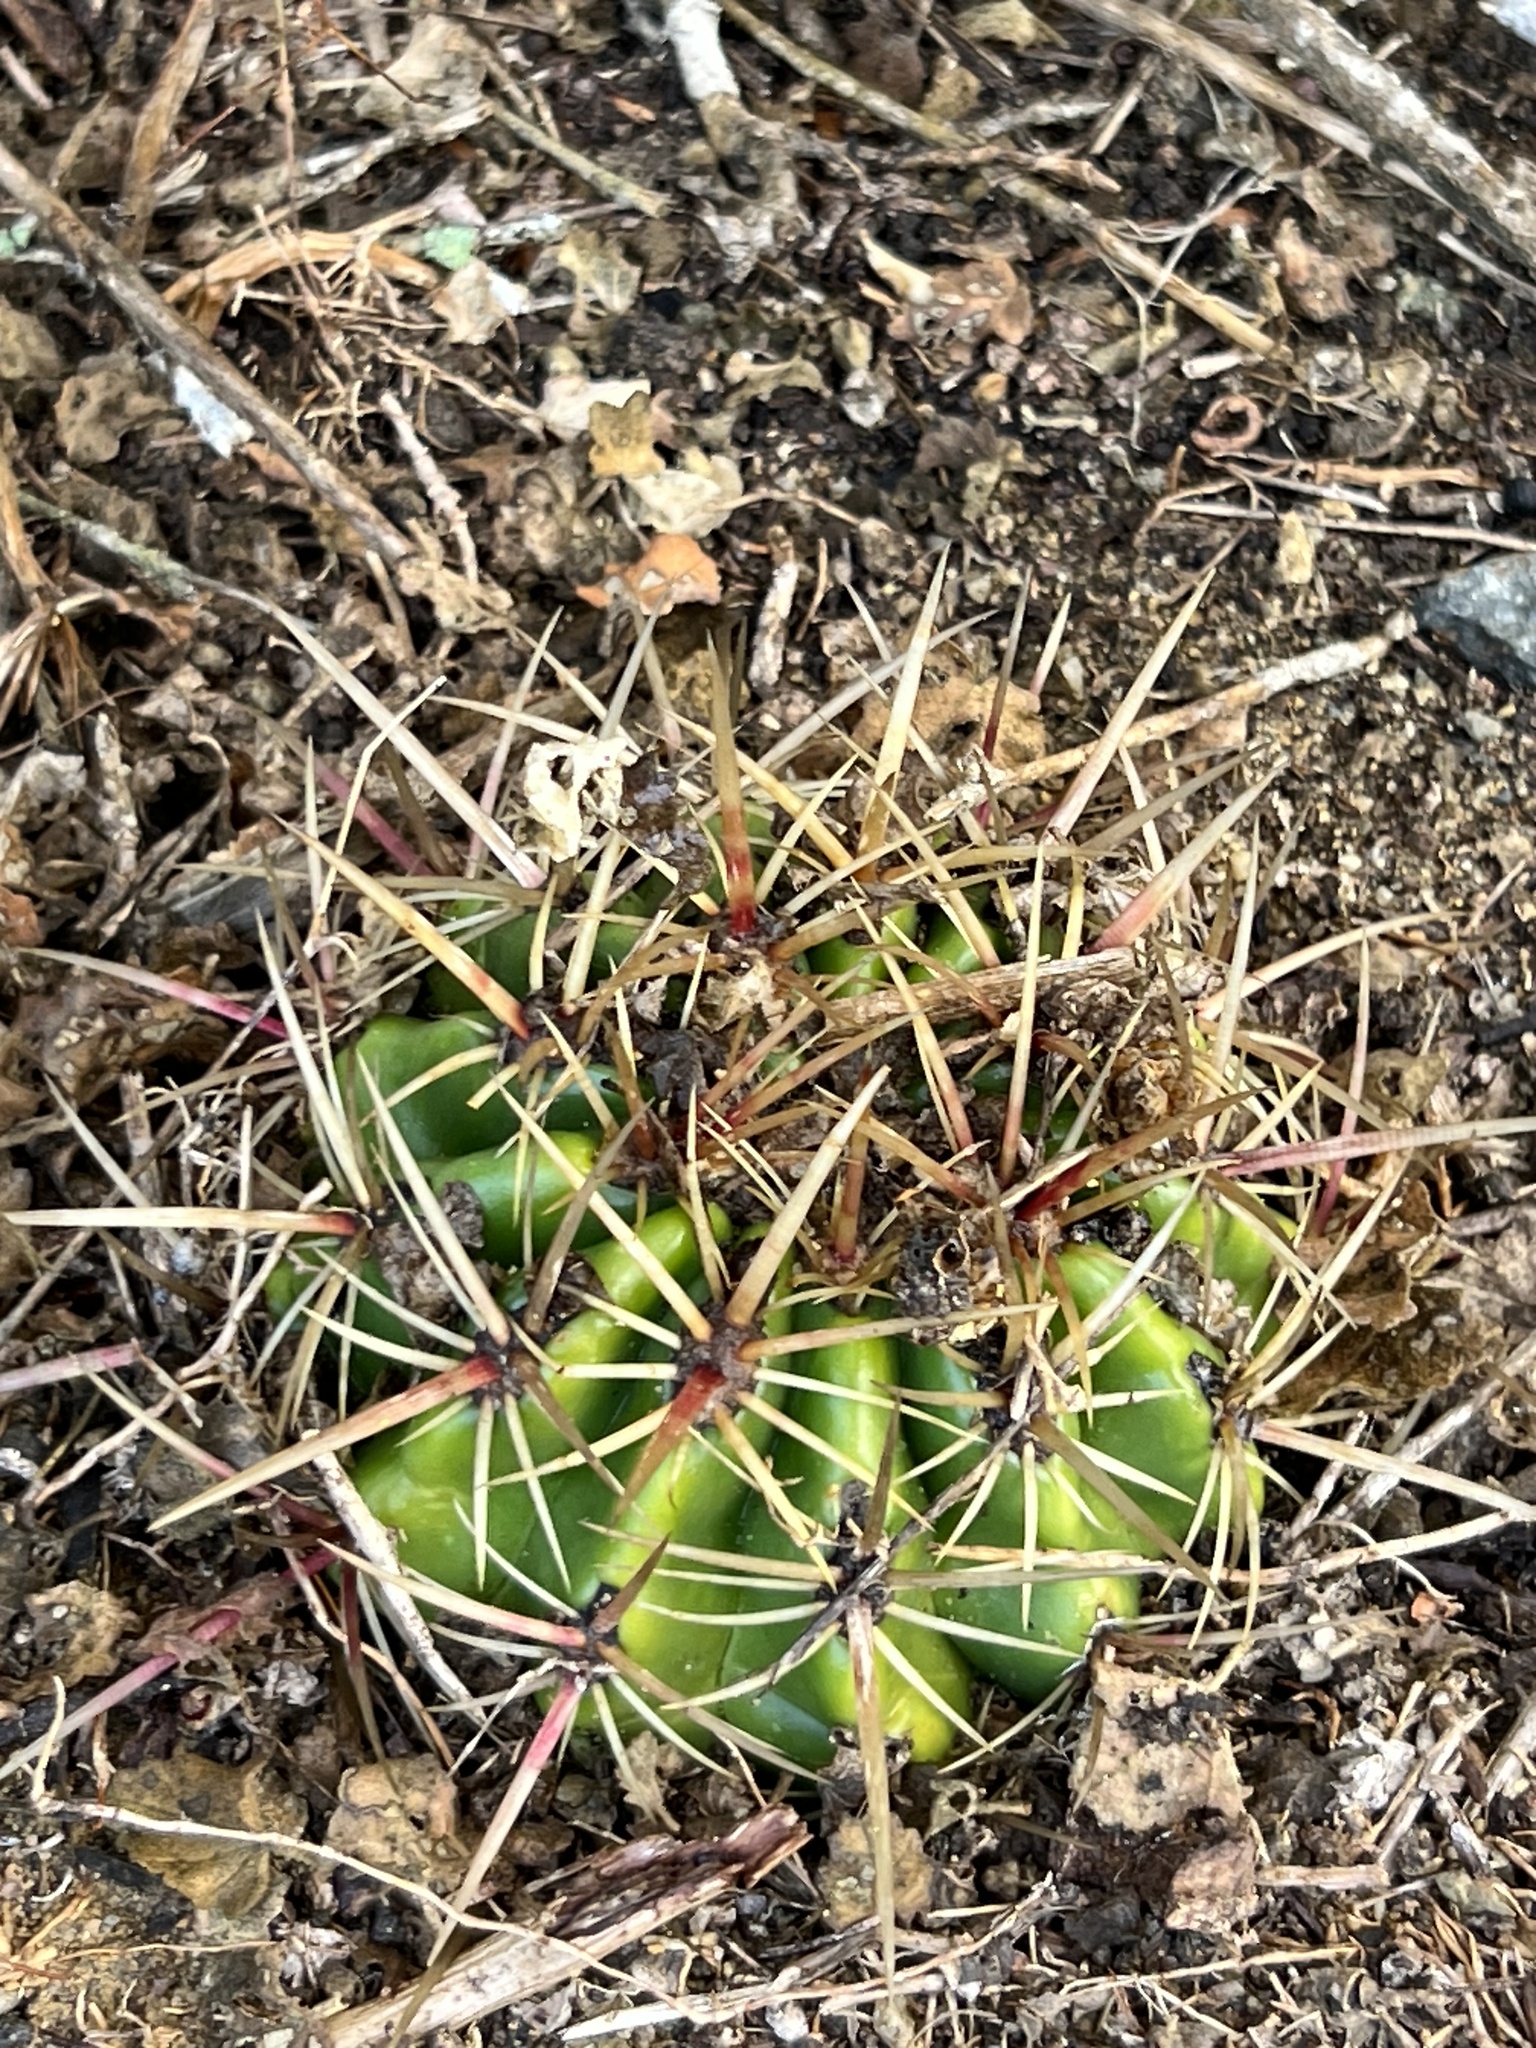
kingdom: Plantae
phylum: Tracheophyta
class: Magnoliopsida
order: Caryophyllales
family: Cactaceae
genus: Ferocactus
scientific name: Ferocactus viridescens
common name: San diego barrel cactus
